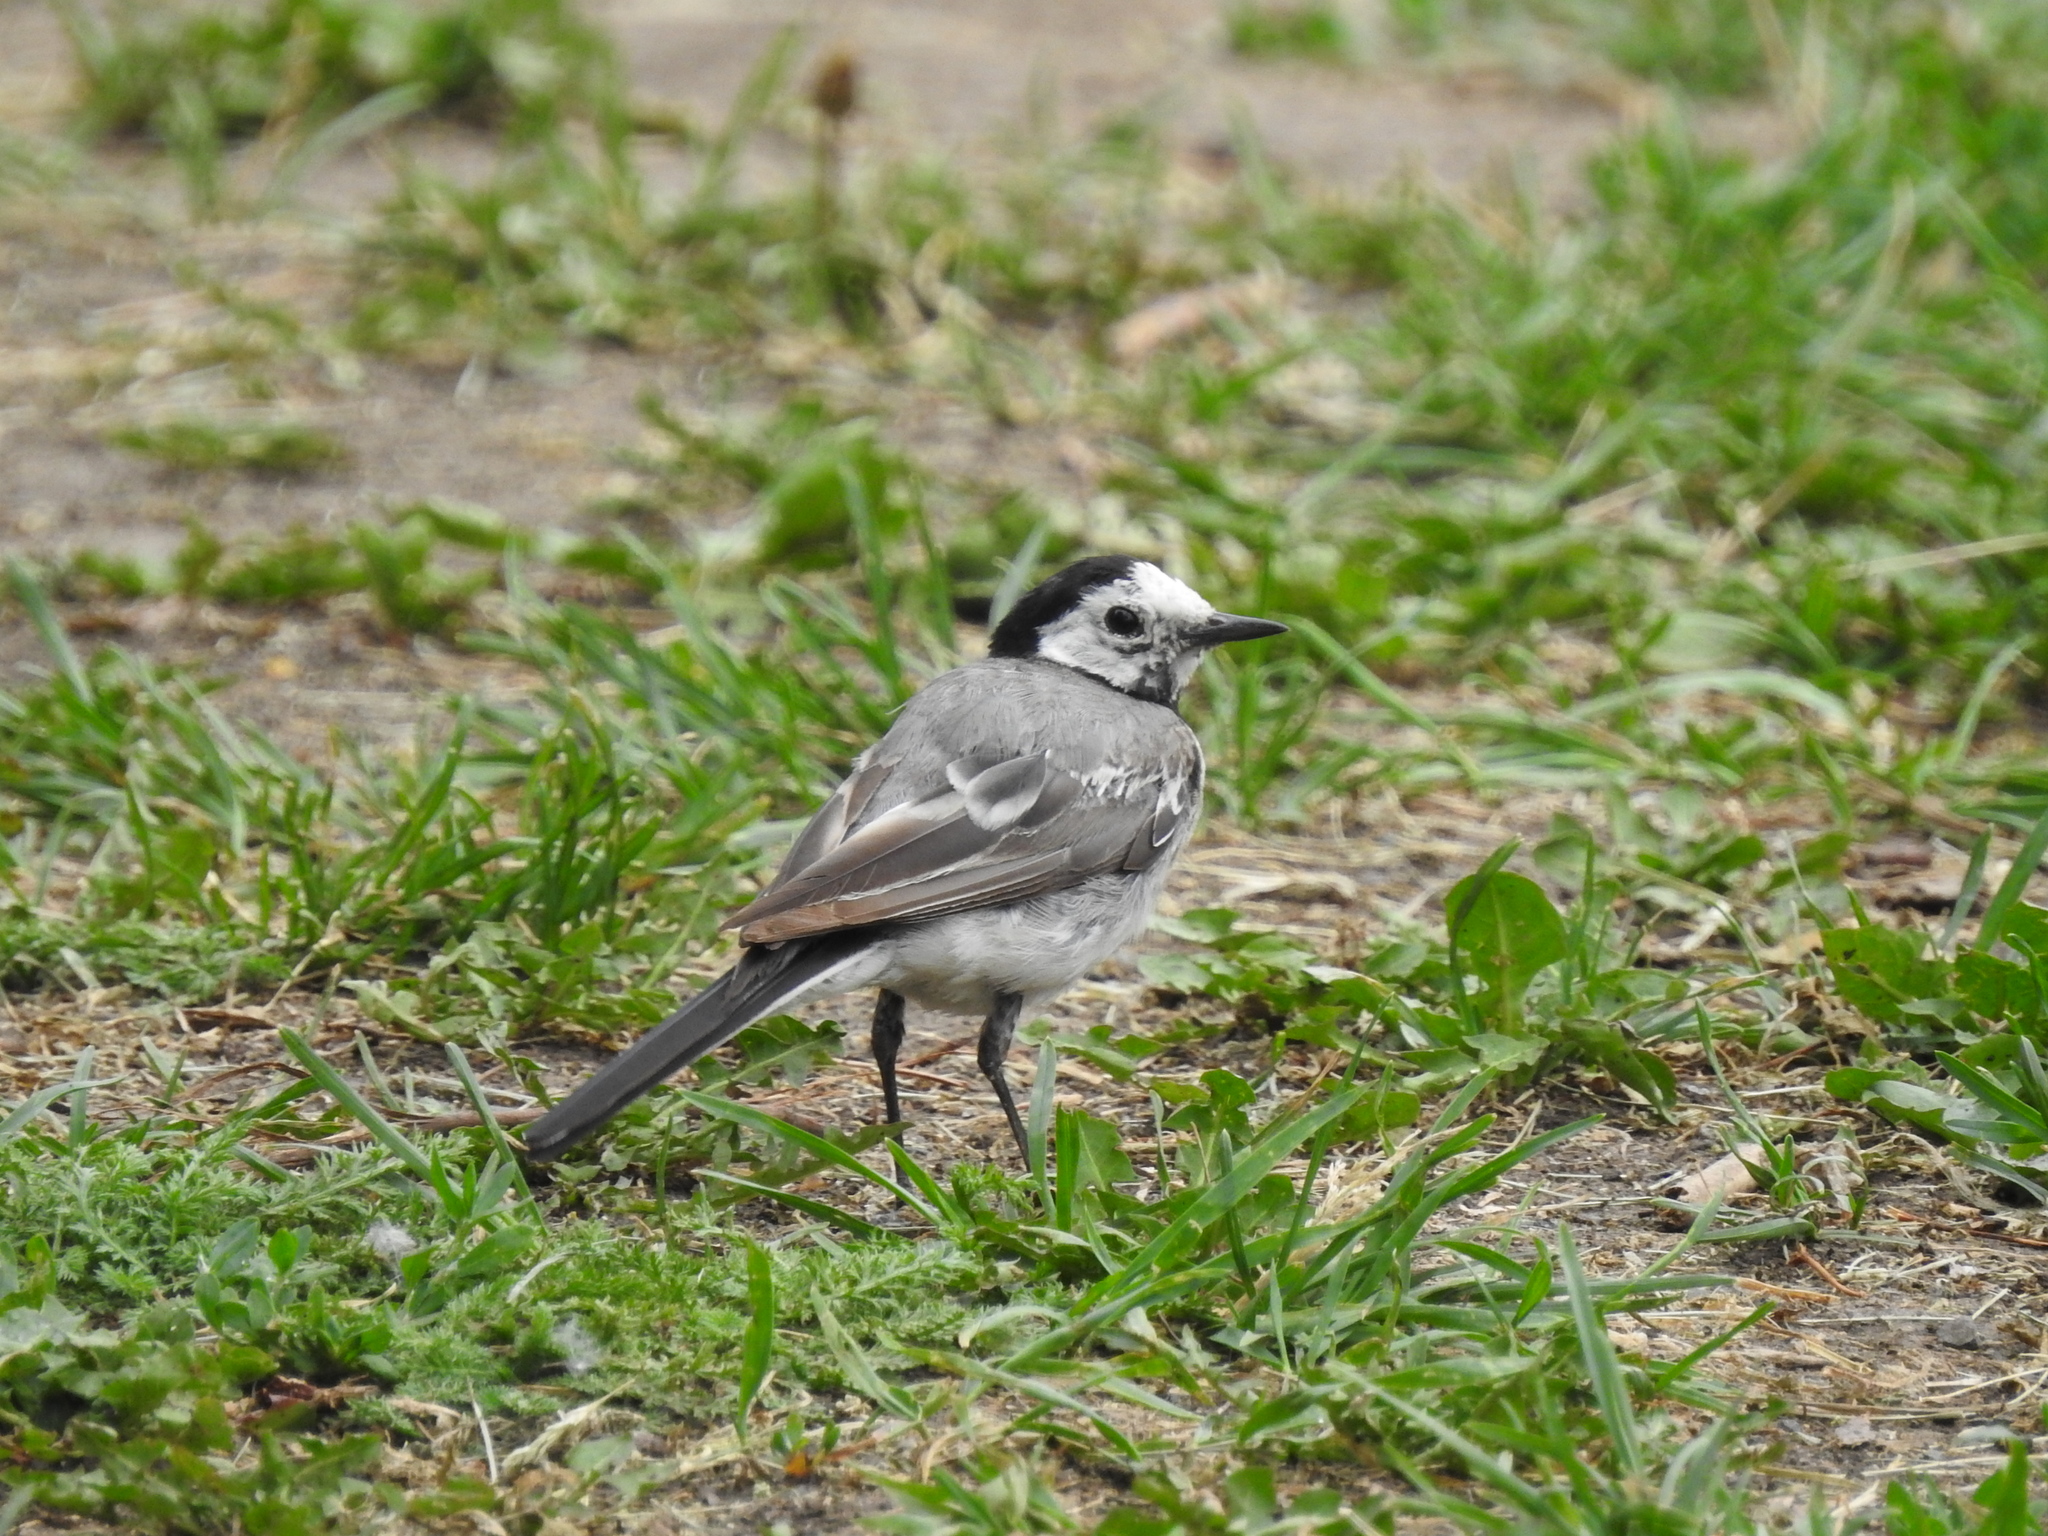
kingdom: Animalia
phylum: Chordata
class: Aves
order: Passeriformes
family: Motacillidae
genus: Motacilla
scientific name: Motacilla alba
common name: White wagtail
